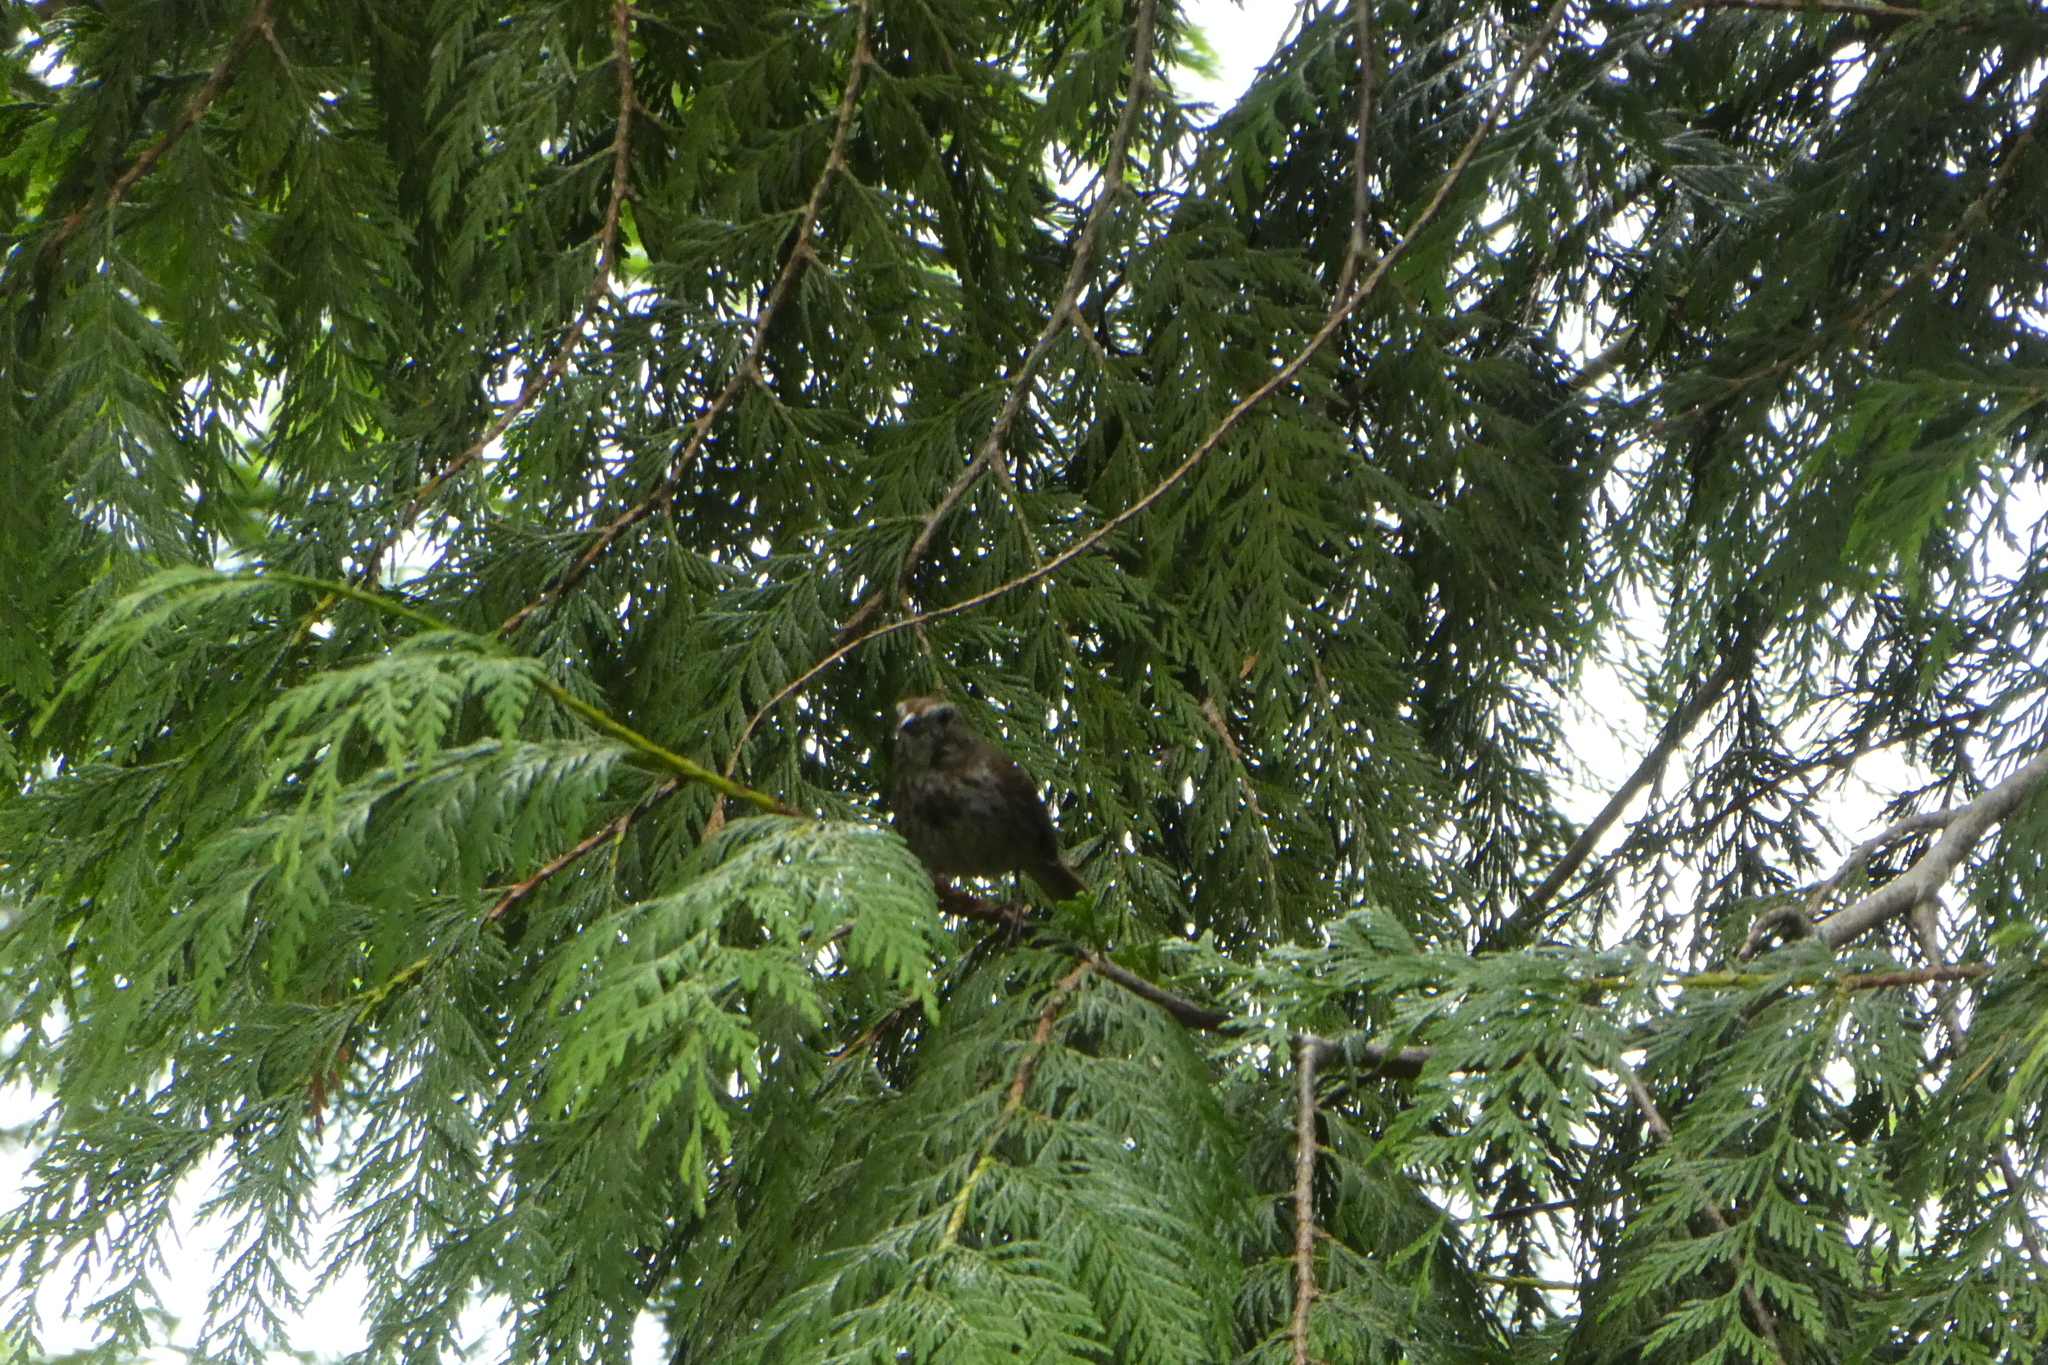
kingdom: Animalia
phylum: Chordata
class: Aves
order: Passeriformes
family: Passerellidae
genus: Melospiza
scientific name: Melospiza melodia
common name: Song sparrow
